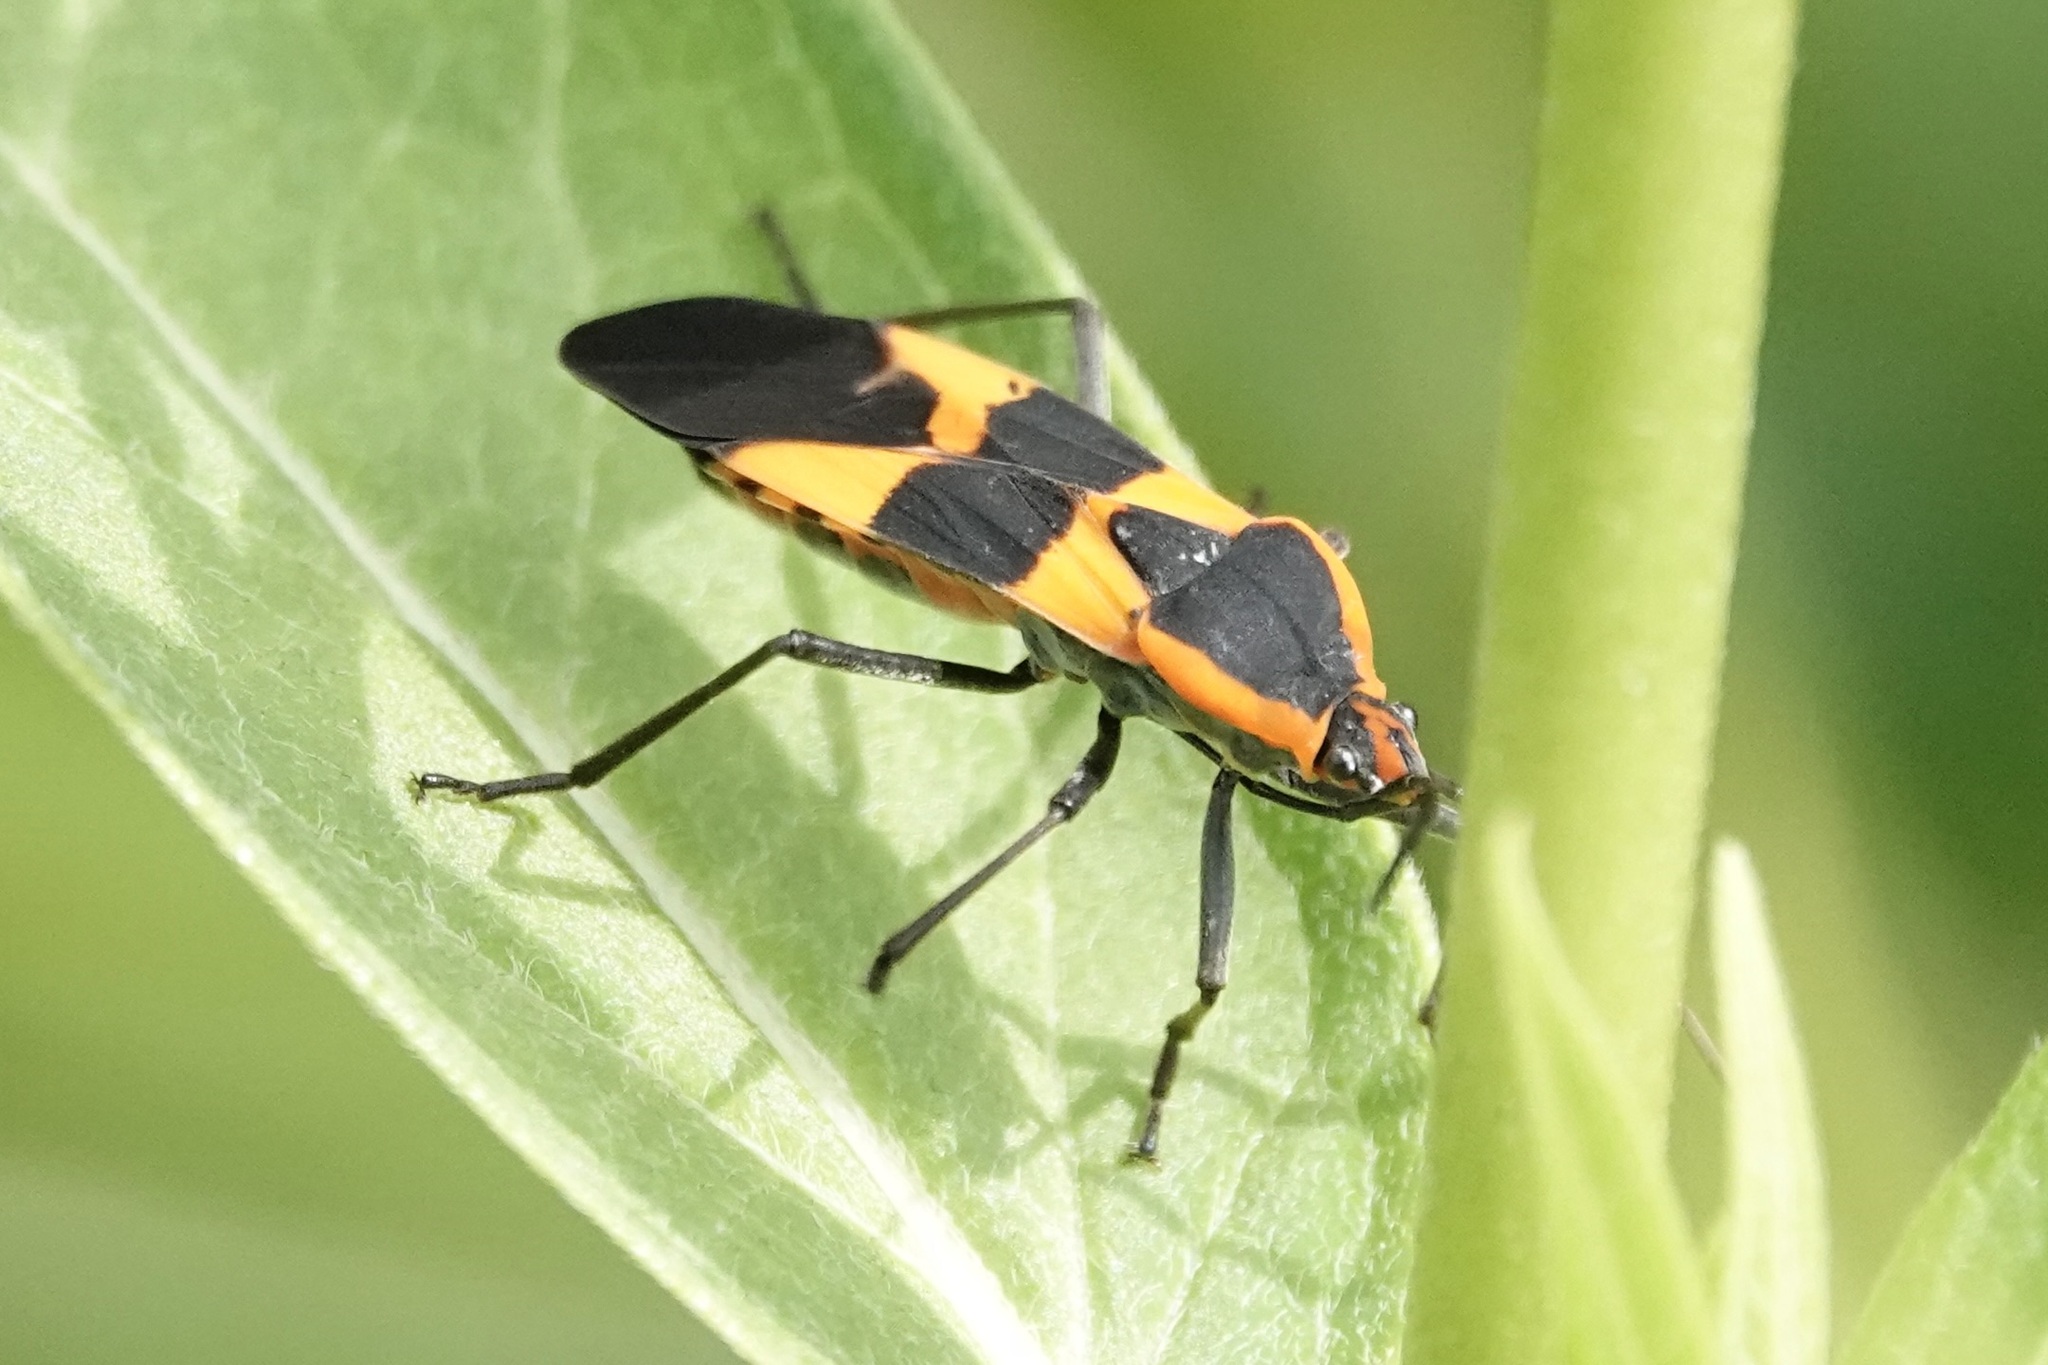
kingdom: Animalia
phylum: Arthropoda
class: Insecta
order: Hemiptera
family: Lygaeidae
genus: Oncopeltus
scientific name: Oncopeltus fasciatus
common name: Large milkweed bug
